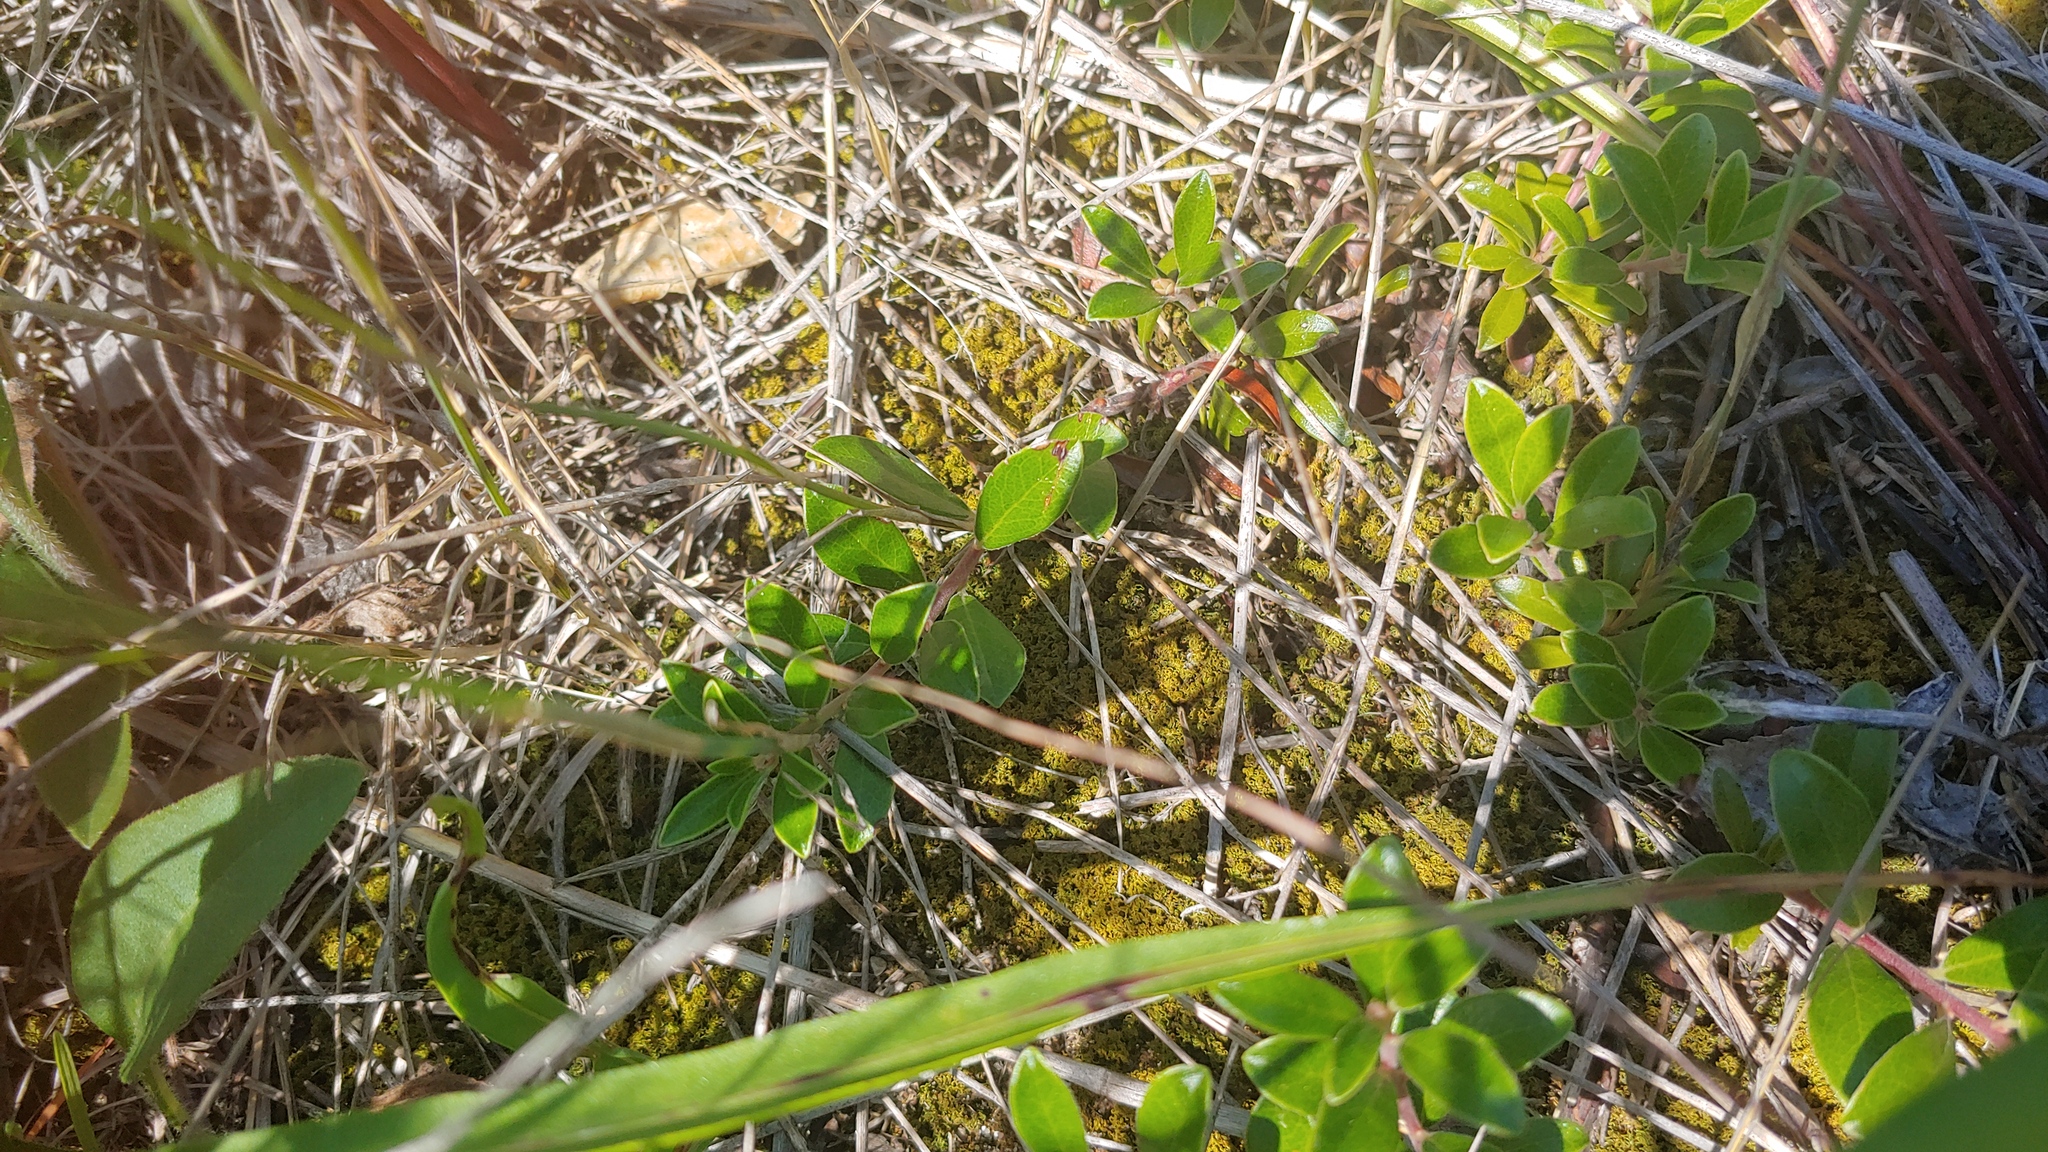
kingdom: Plantae
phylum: Tracheophyta
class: Magnoliopsida
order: Ericales
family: Ericaceae
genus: Arctostaphylos
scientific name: Arctostaphylos uva-ursi
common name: Bearberry
